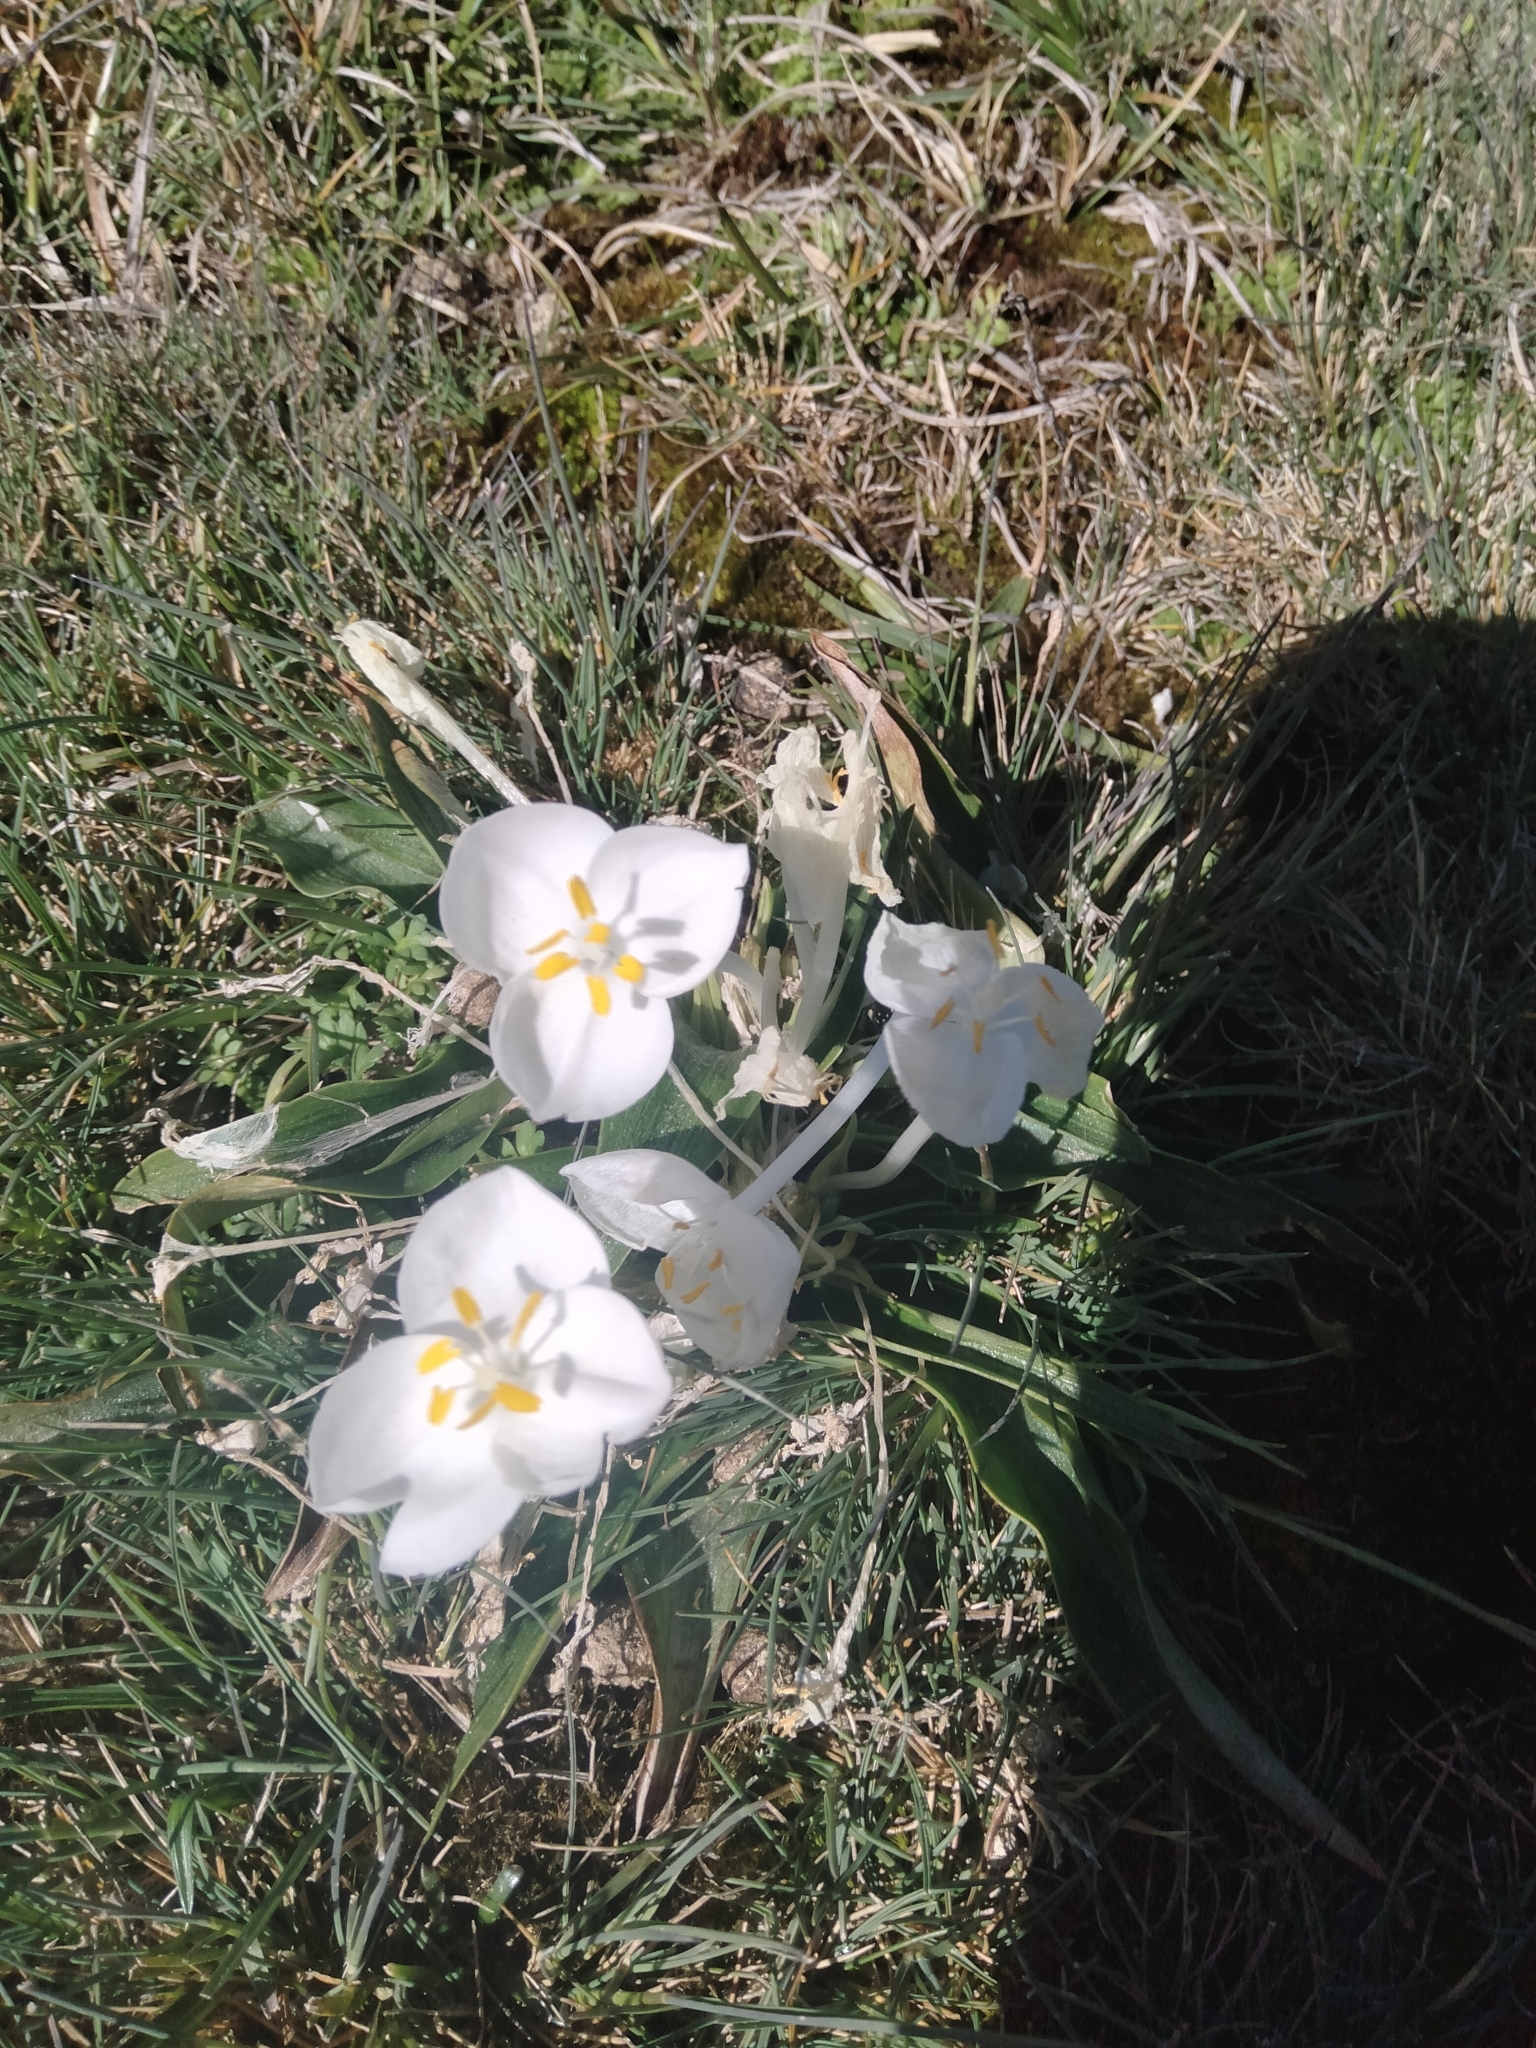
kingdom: Plantae
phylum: Tracheophyta
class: Liliopsida
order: Commelinales
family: Commelinaceae
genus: Weldenia
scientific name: Weldenia candida
